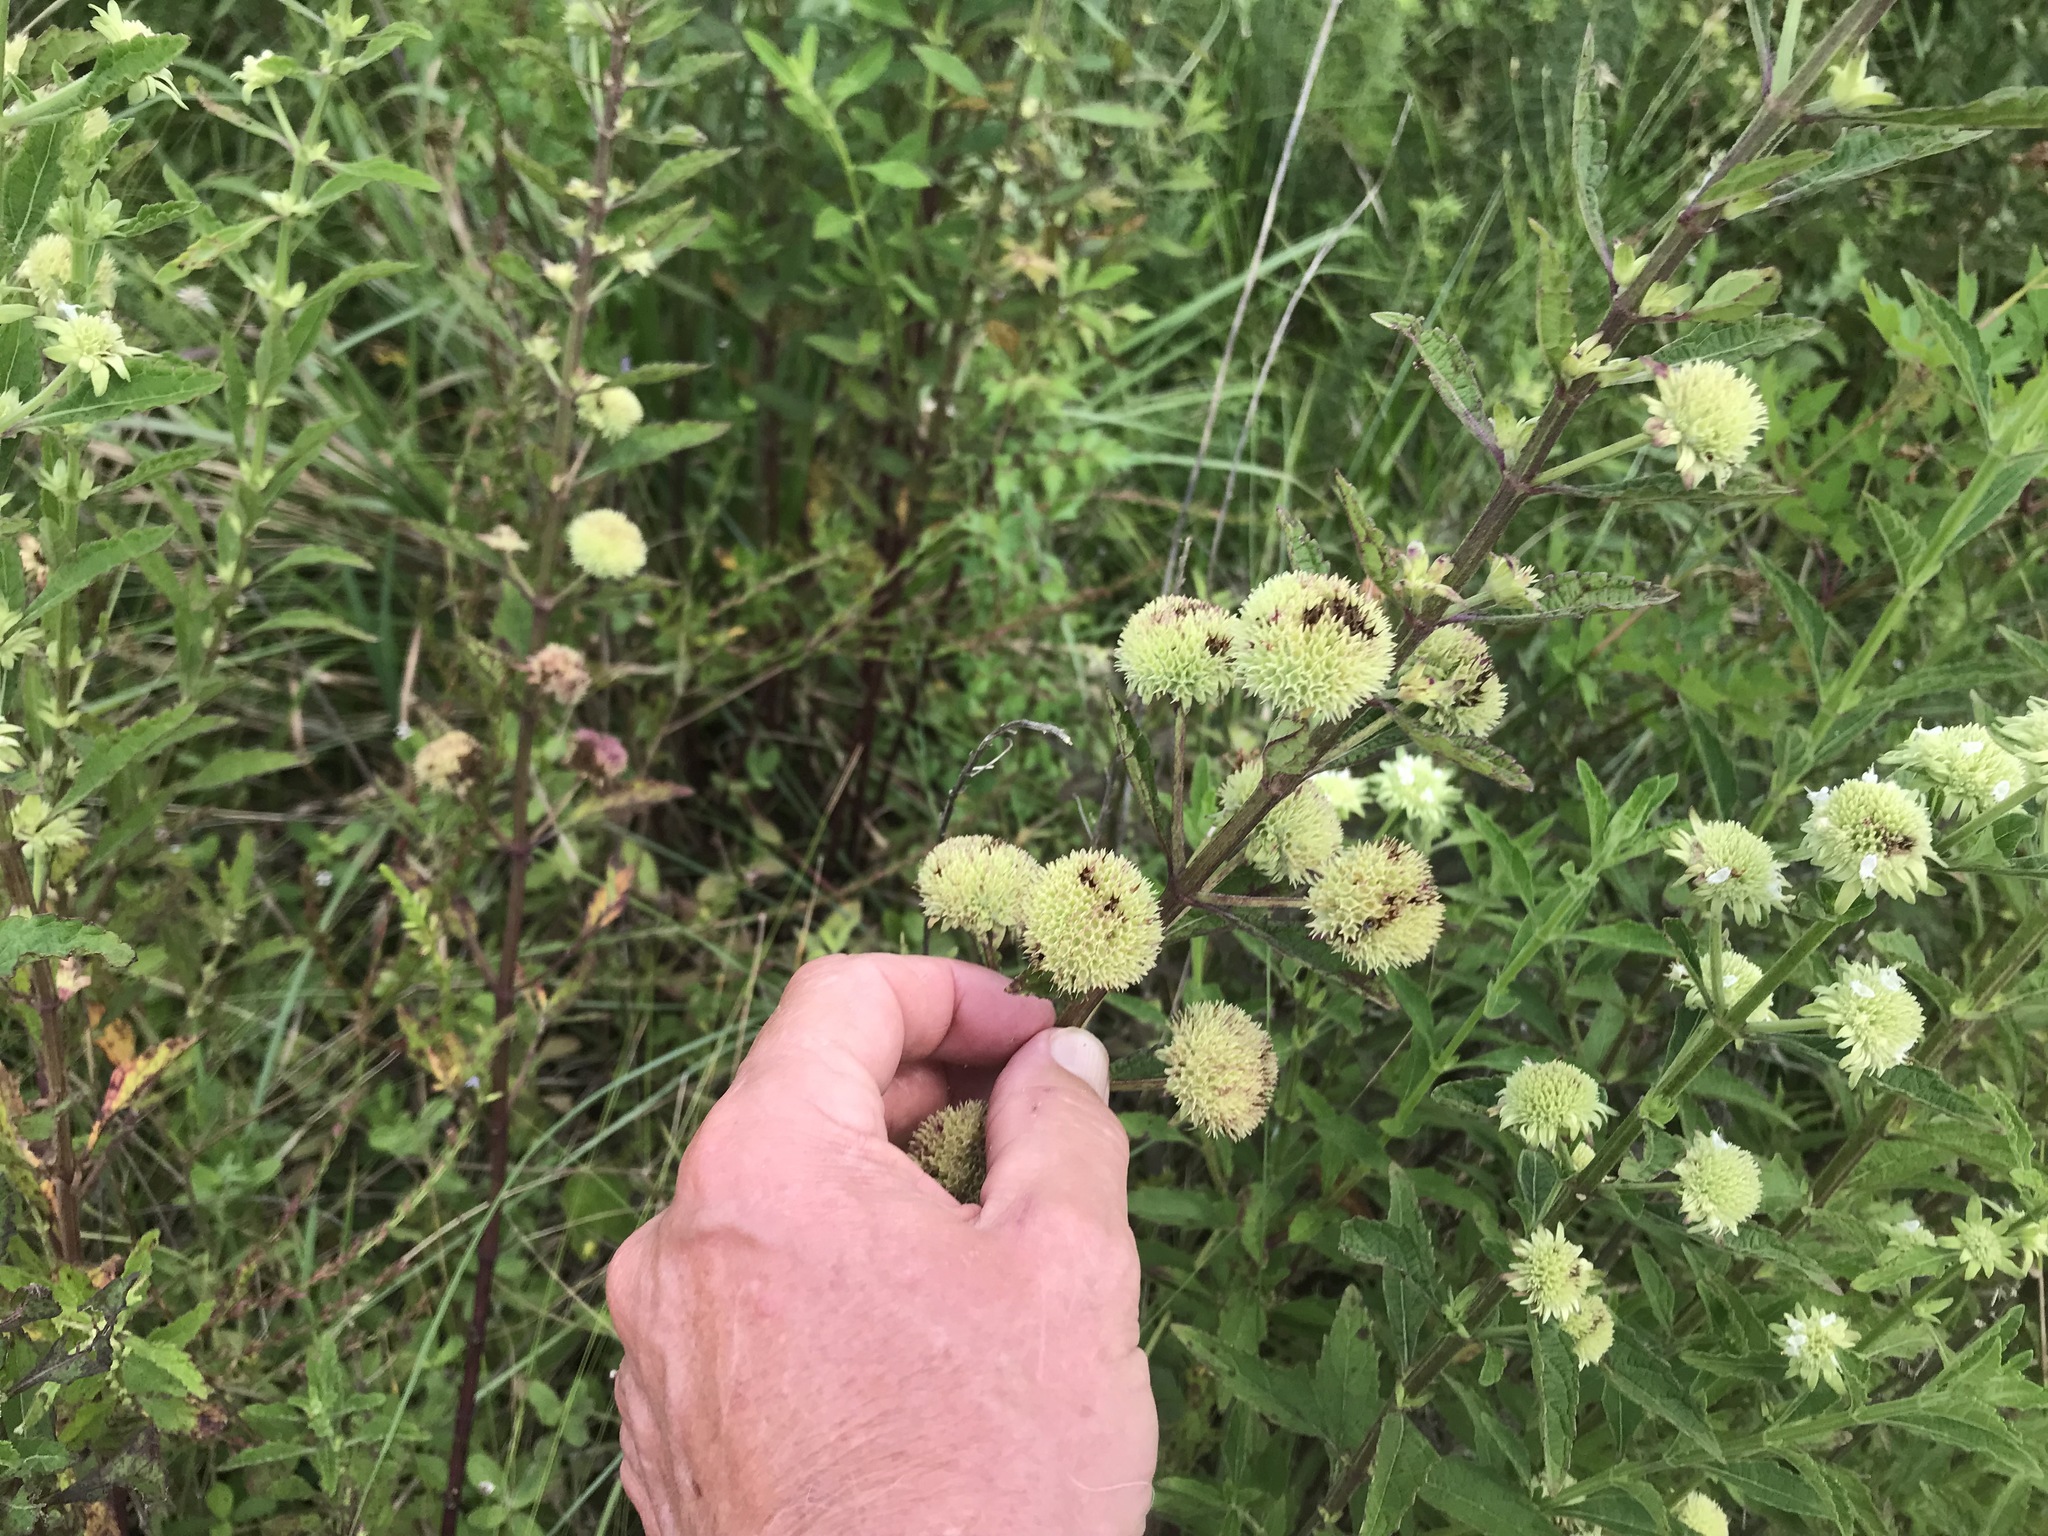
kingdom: Plantae
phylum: Tracheophyta
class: Magnoliopsida
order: Lamiales
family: Lamiaceae
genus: Hyptis
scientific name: Hyptis alata
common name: Cluster bush-mint
